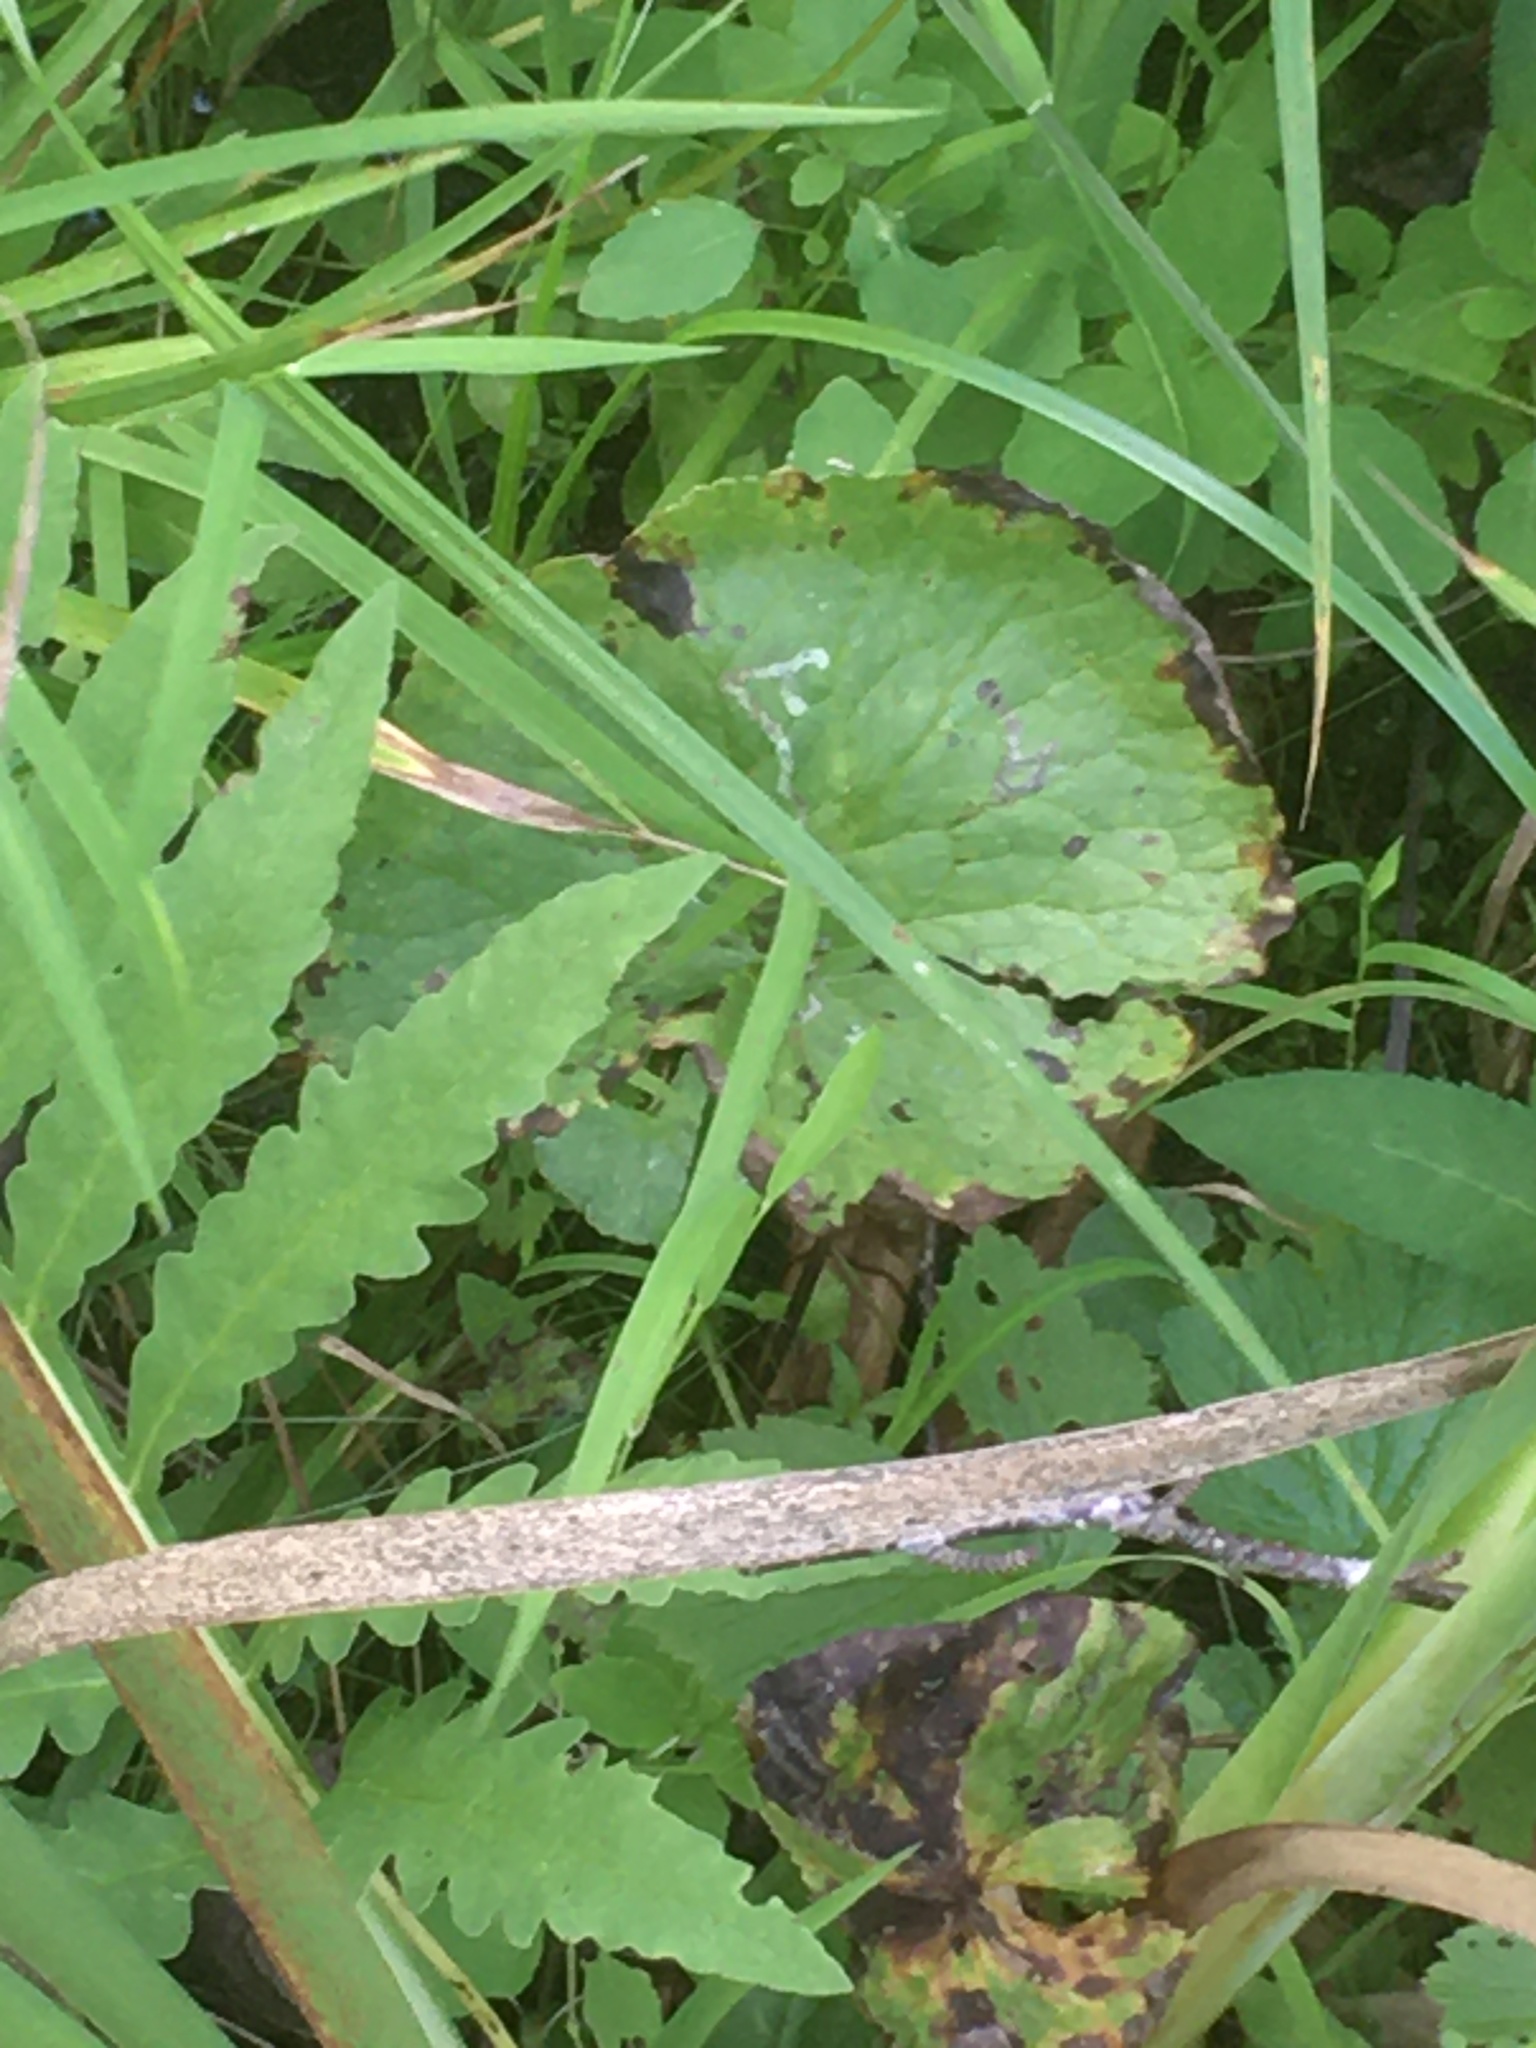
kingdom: Plantae
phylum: Tracheophyta
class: Magnoliopsida
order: Ranunculales
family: Ranunculaceae
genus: Caltha
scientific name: Caltha palustris
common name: Marsh marigold
